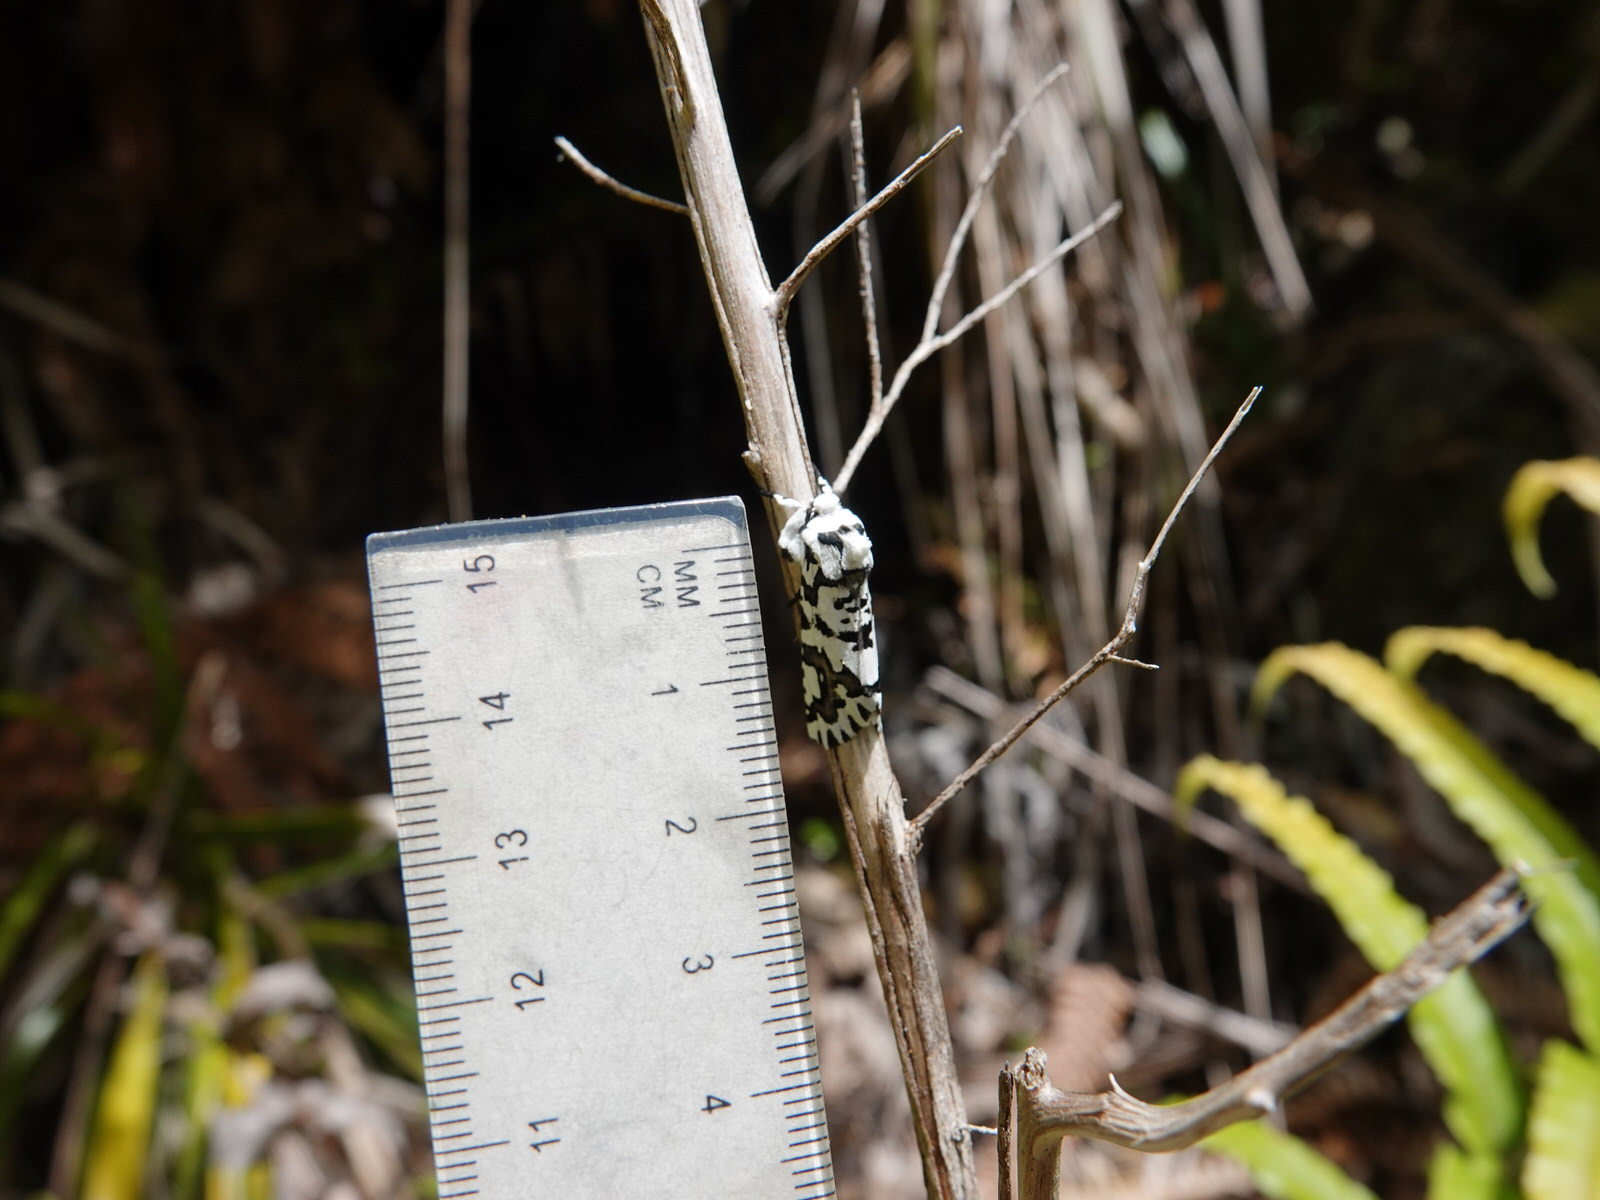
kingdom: Animalia
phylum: Arthropoda
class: Insecta
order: Lepidoptera
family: Geometridae
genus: Declana
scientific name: Declana
